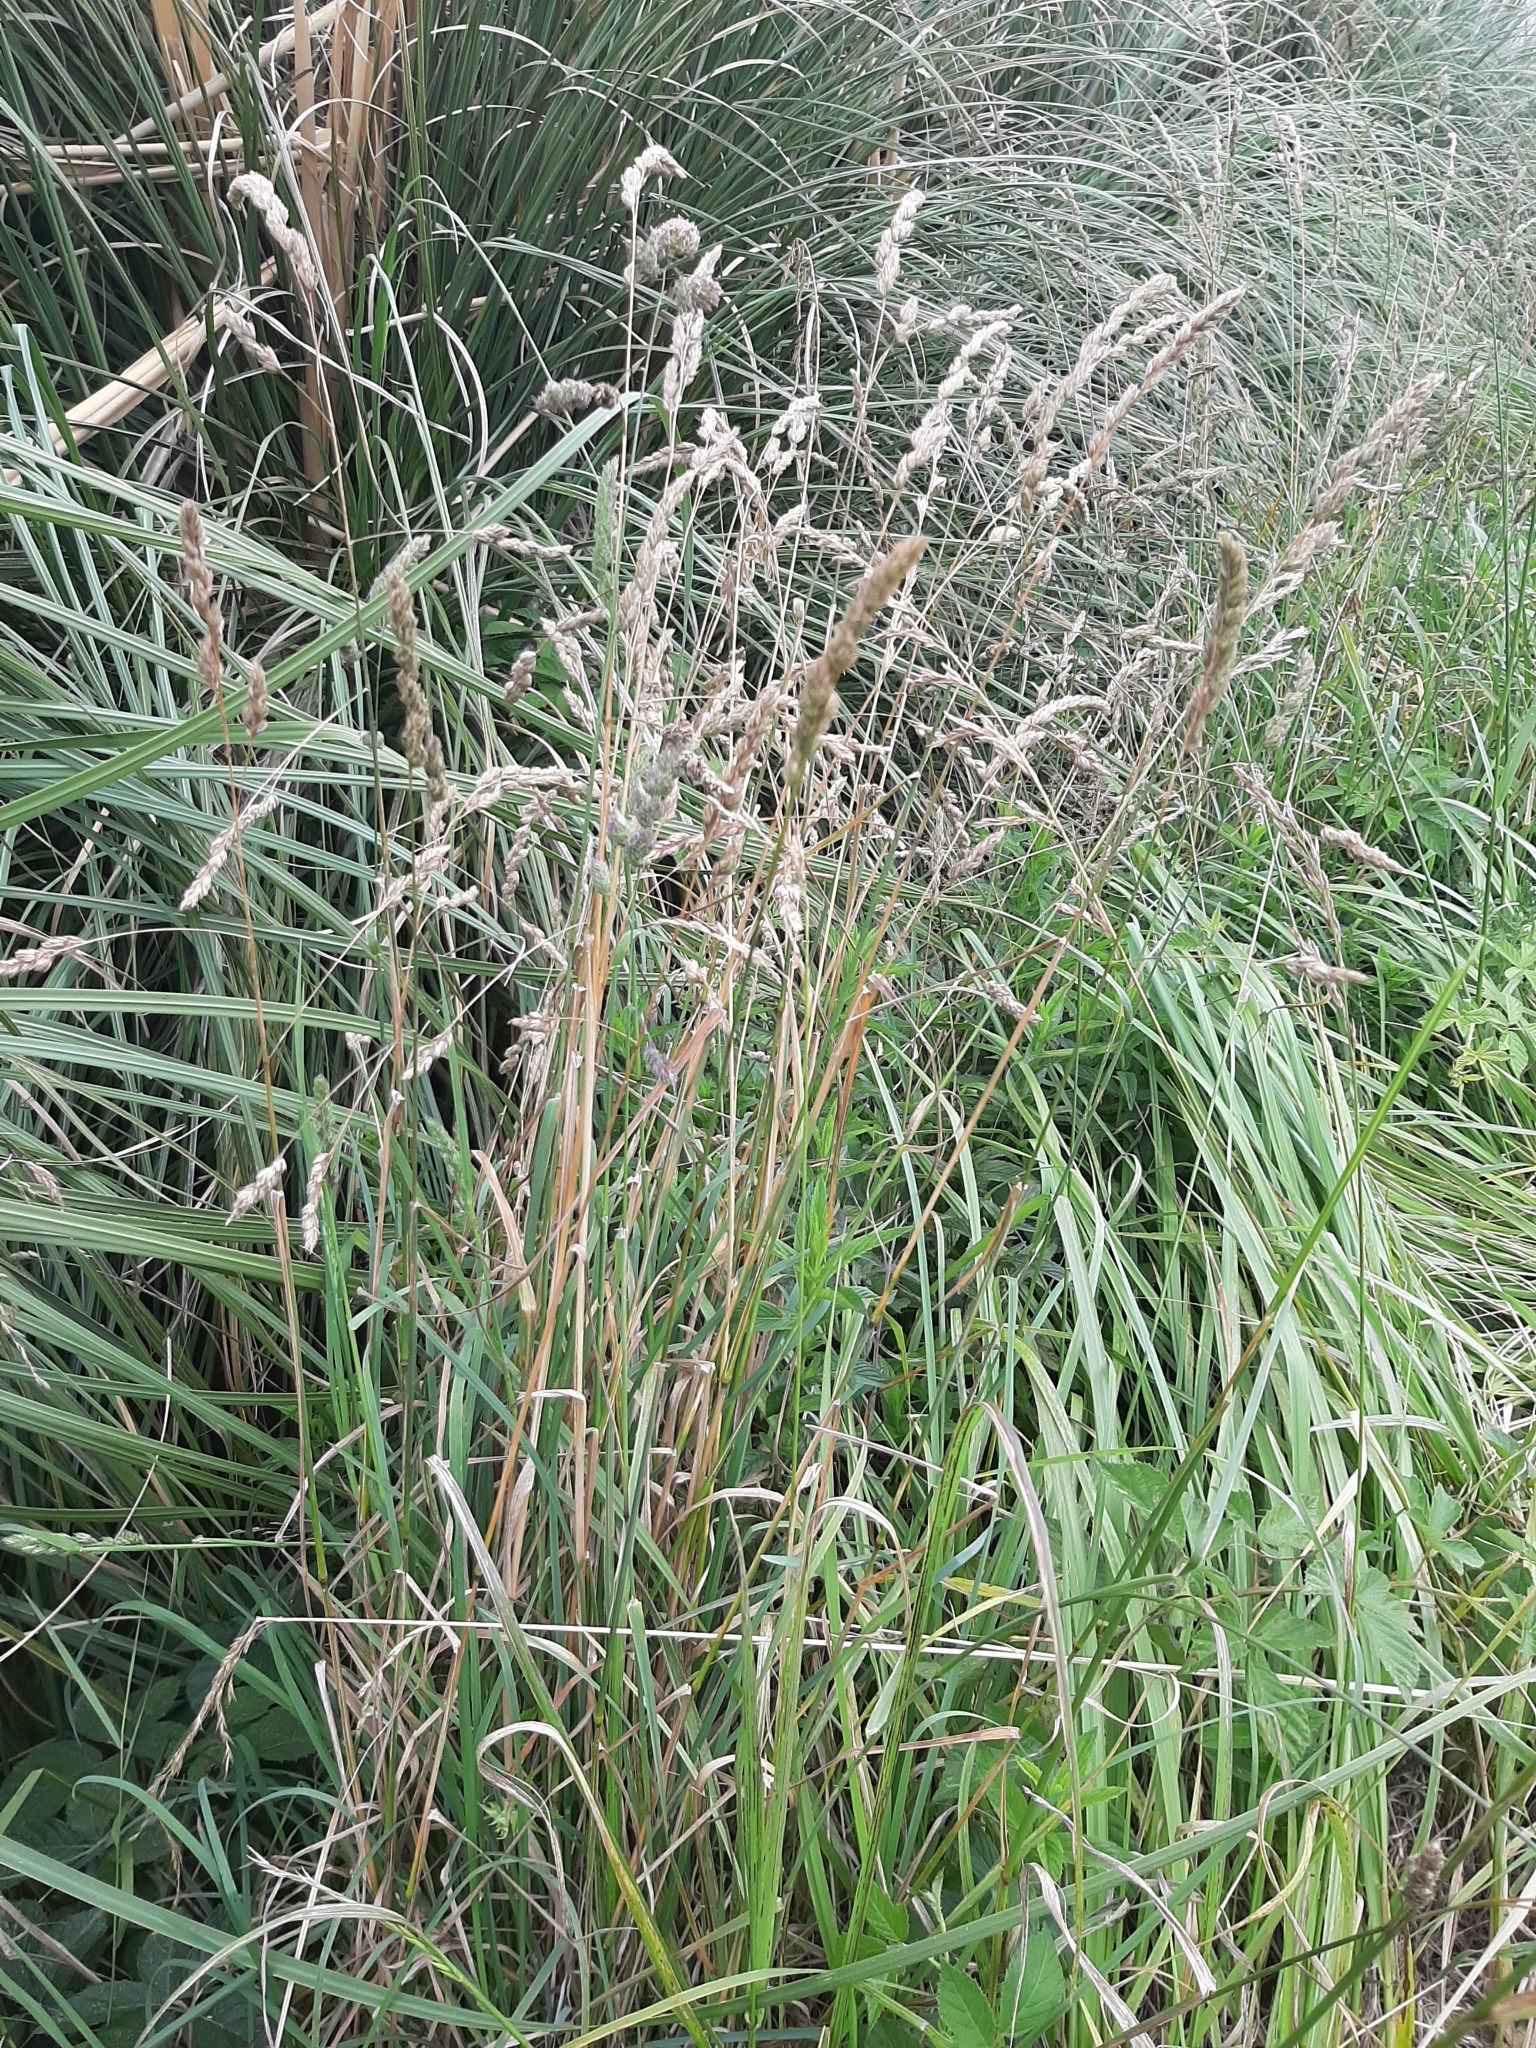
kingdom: Plantae
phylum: Tracheophyta
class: Liliopsida
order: Poales
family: Poaceae
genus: Dactylis
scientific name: Dactylis glomerata
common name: Orchardgrass
